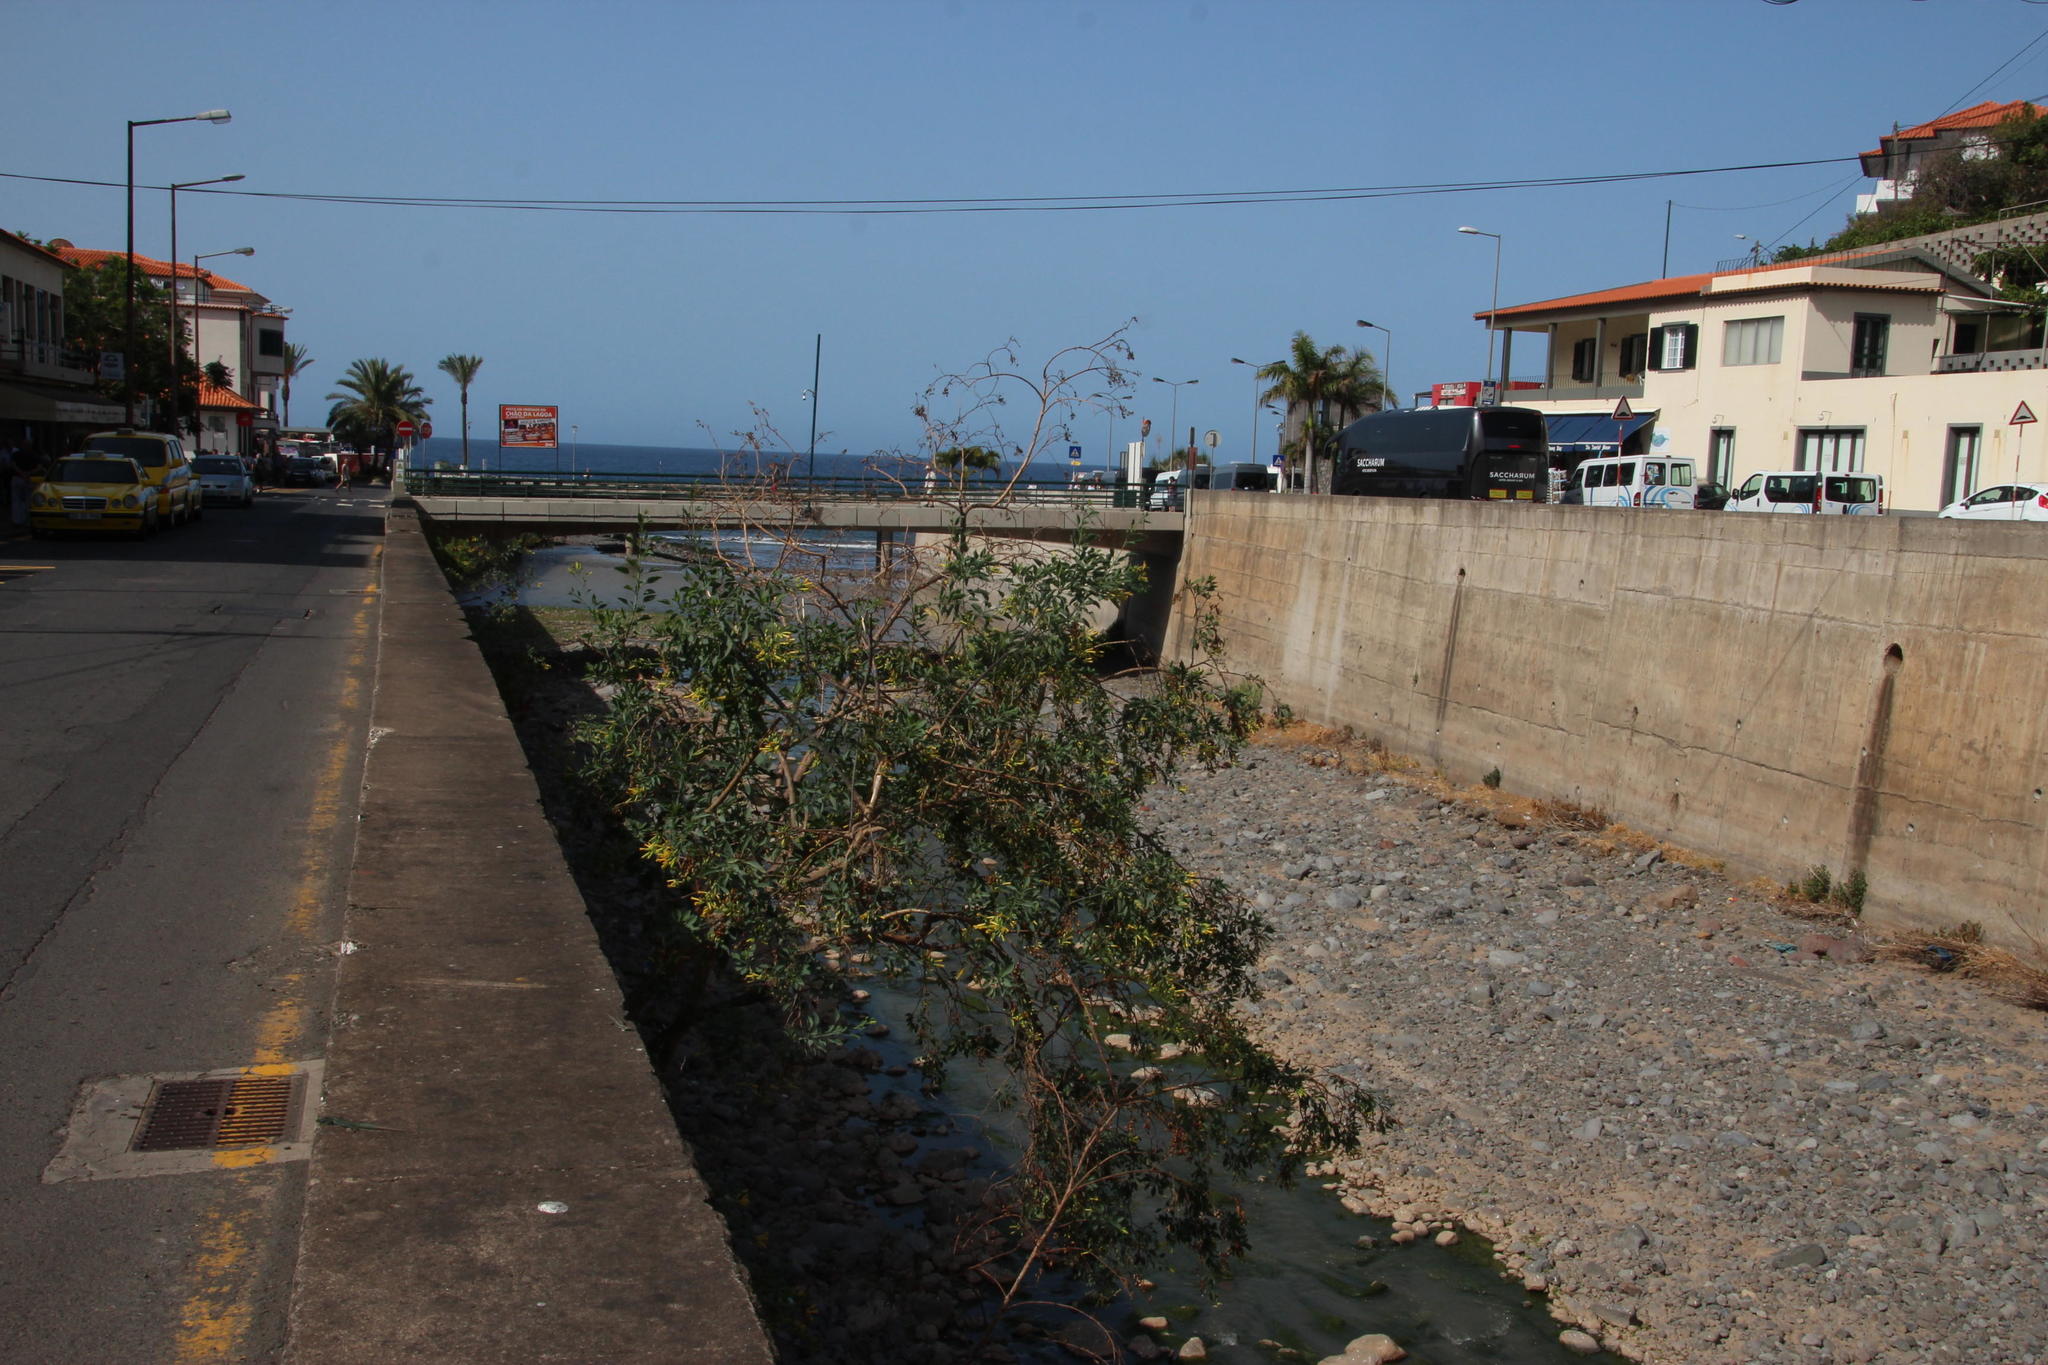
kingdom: Plantae
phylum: Tracheophyta
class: Magnoliopsida
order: Solanales
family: Solanaceae
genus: Nicotiana
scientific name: Nicotiana glauca
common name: Tree tobacco
